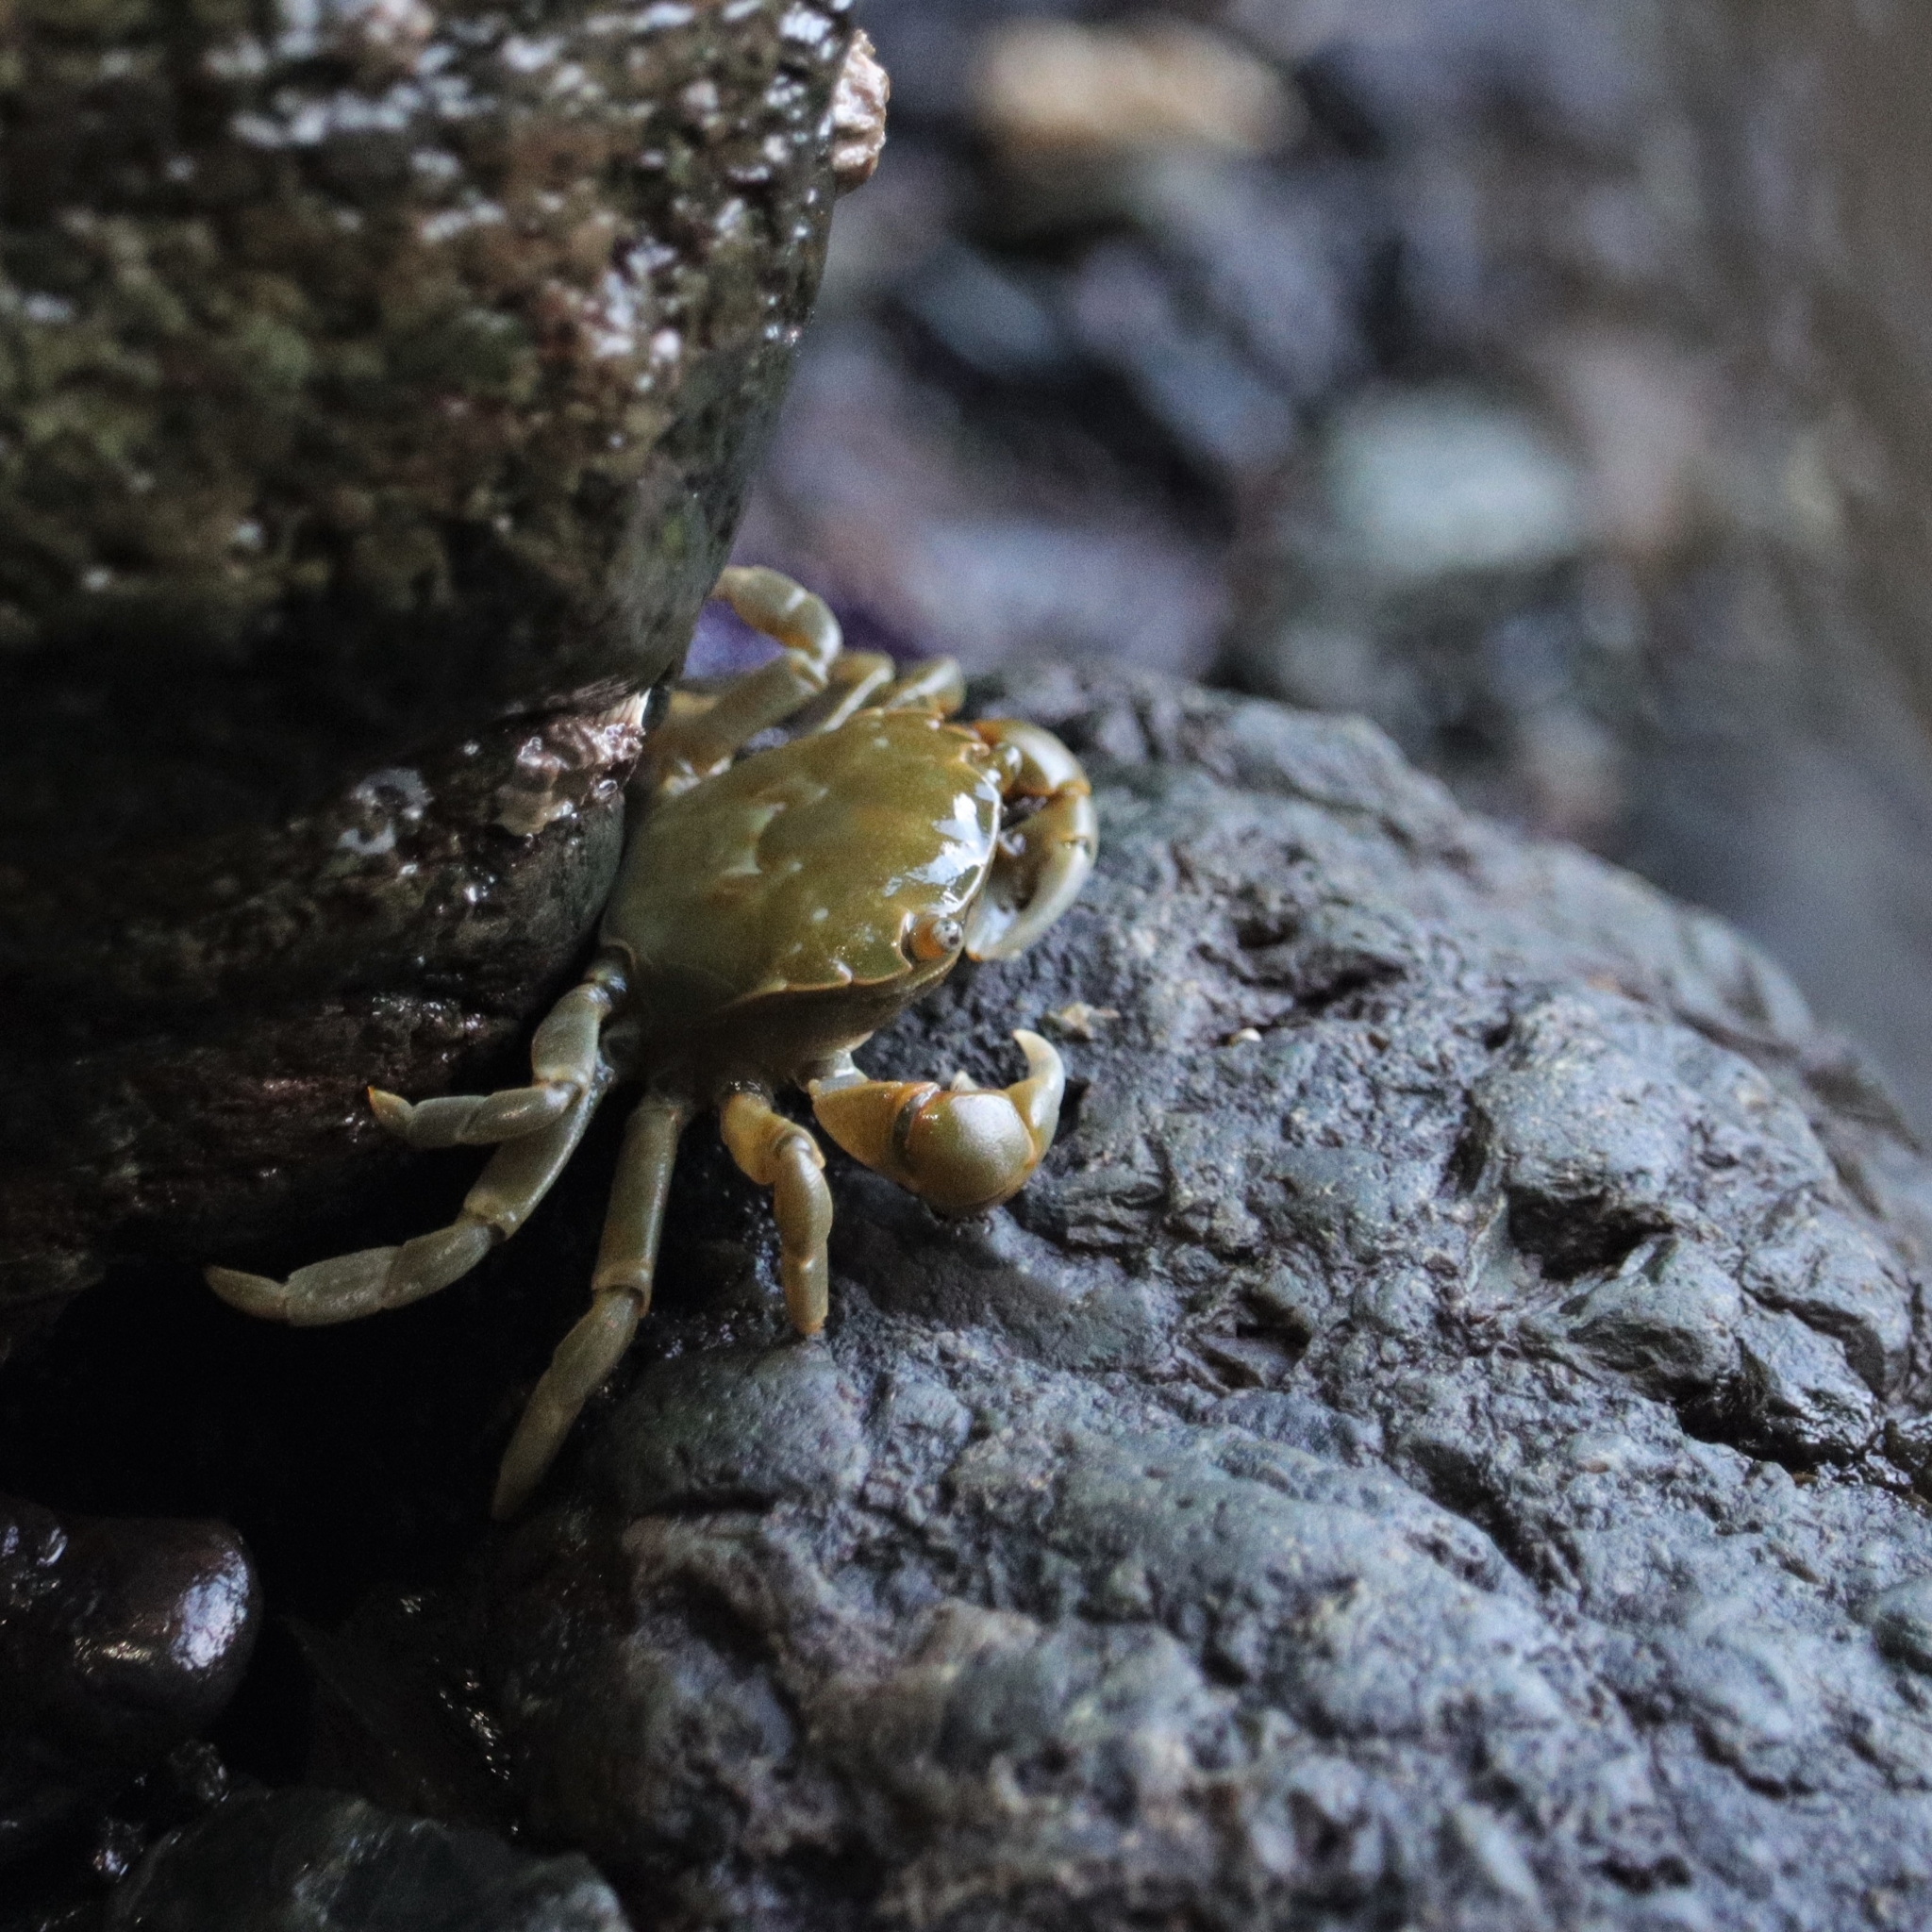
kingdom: Animalia
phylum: Arthropoda
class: Malacostraca
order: Decapoda
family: Varunidae
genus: Hemigrapsus
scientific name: Hemigrapsus nudus
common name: Purple shore crab
